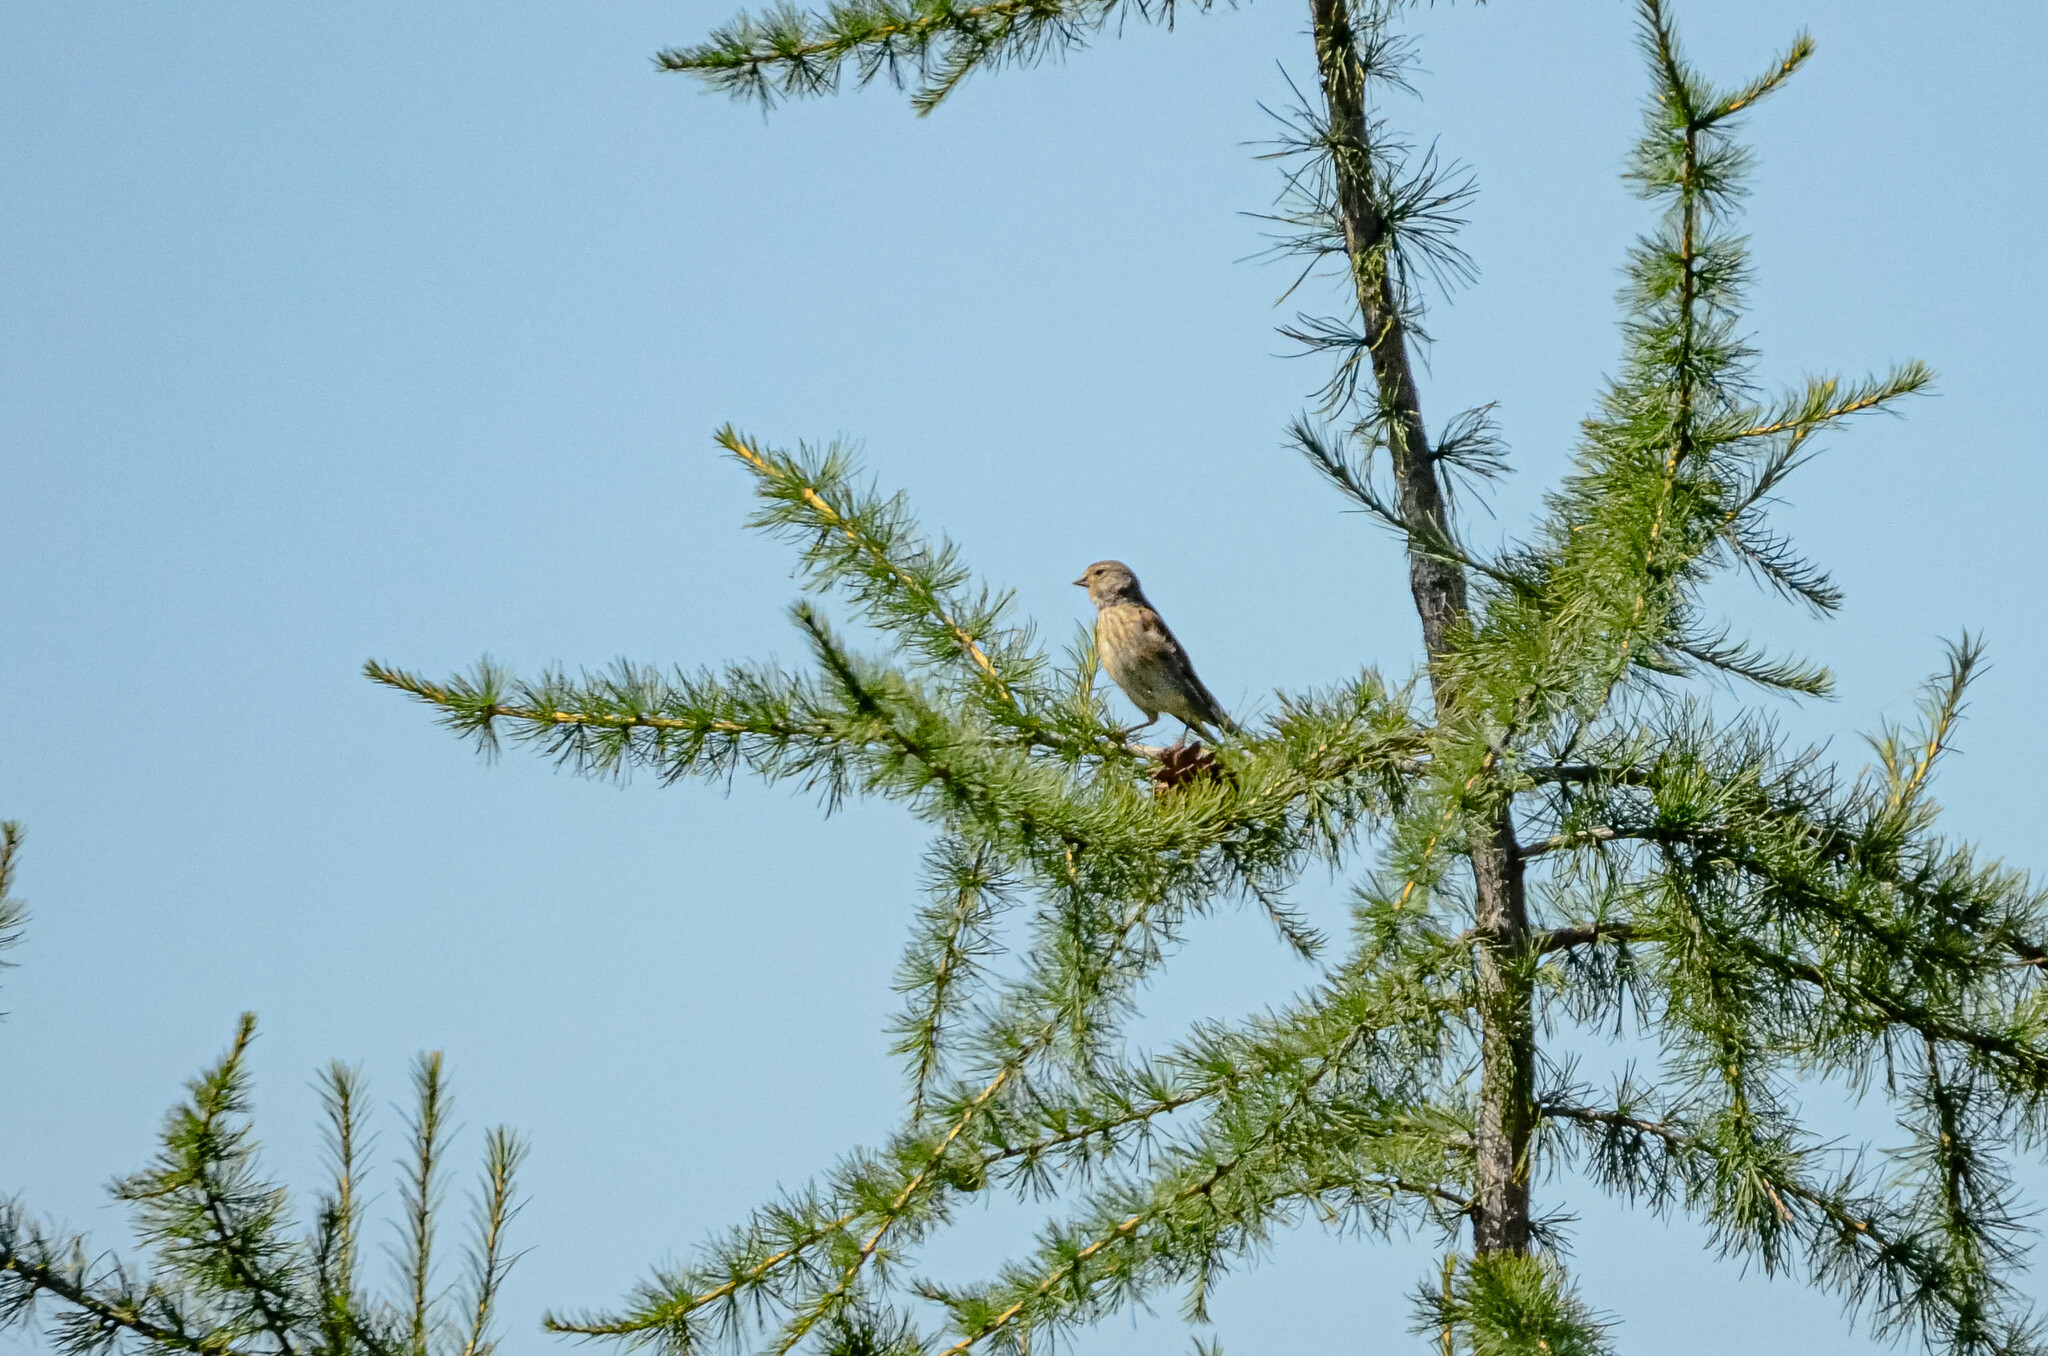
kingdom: Animalia
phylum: Chordata
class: Aves
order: Passeriformes
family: Fringillidae
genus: Linaria
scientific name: Linaria cannabina
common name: Common linnet
